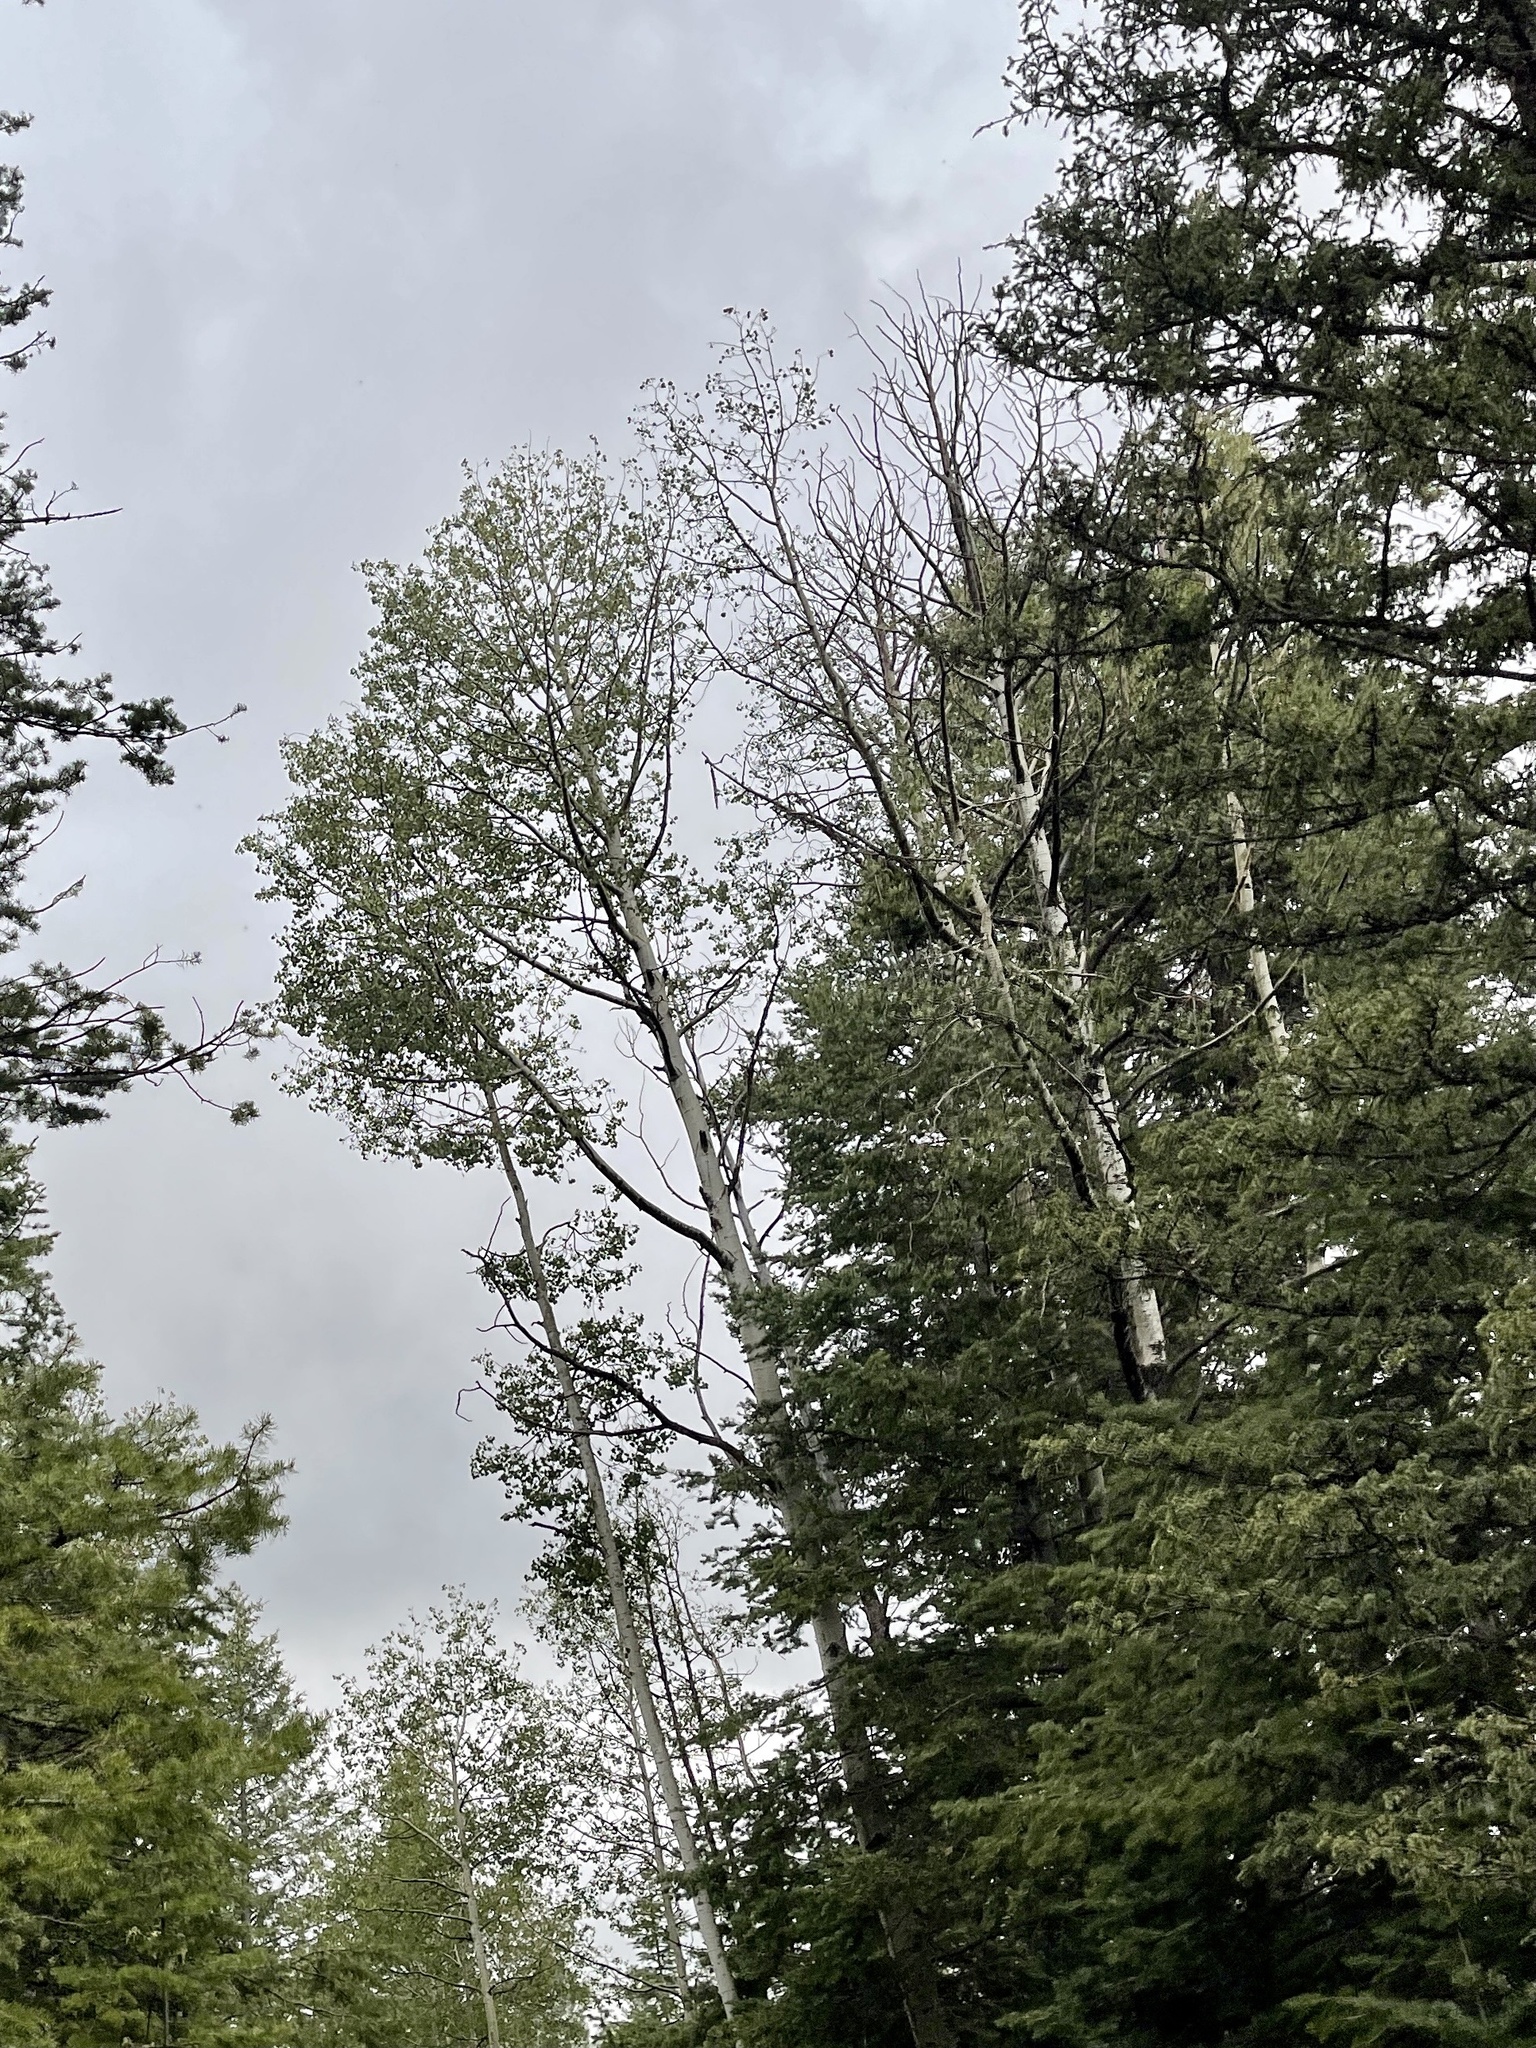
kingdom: Plantae
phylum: Tracheophyta
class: Magnoliopsida
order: Malpighiales
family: Salicaceae
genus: Populus
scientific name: Populus tremuloides
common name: Quaking aspen
